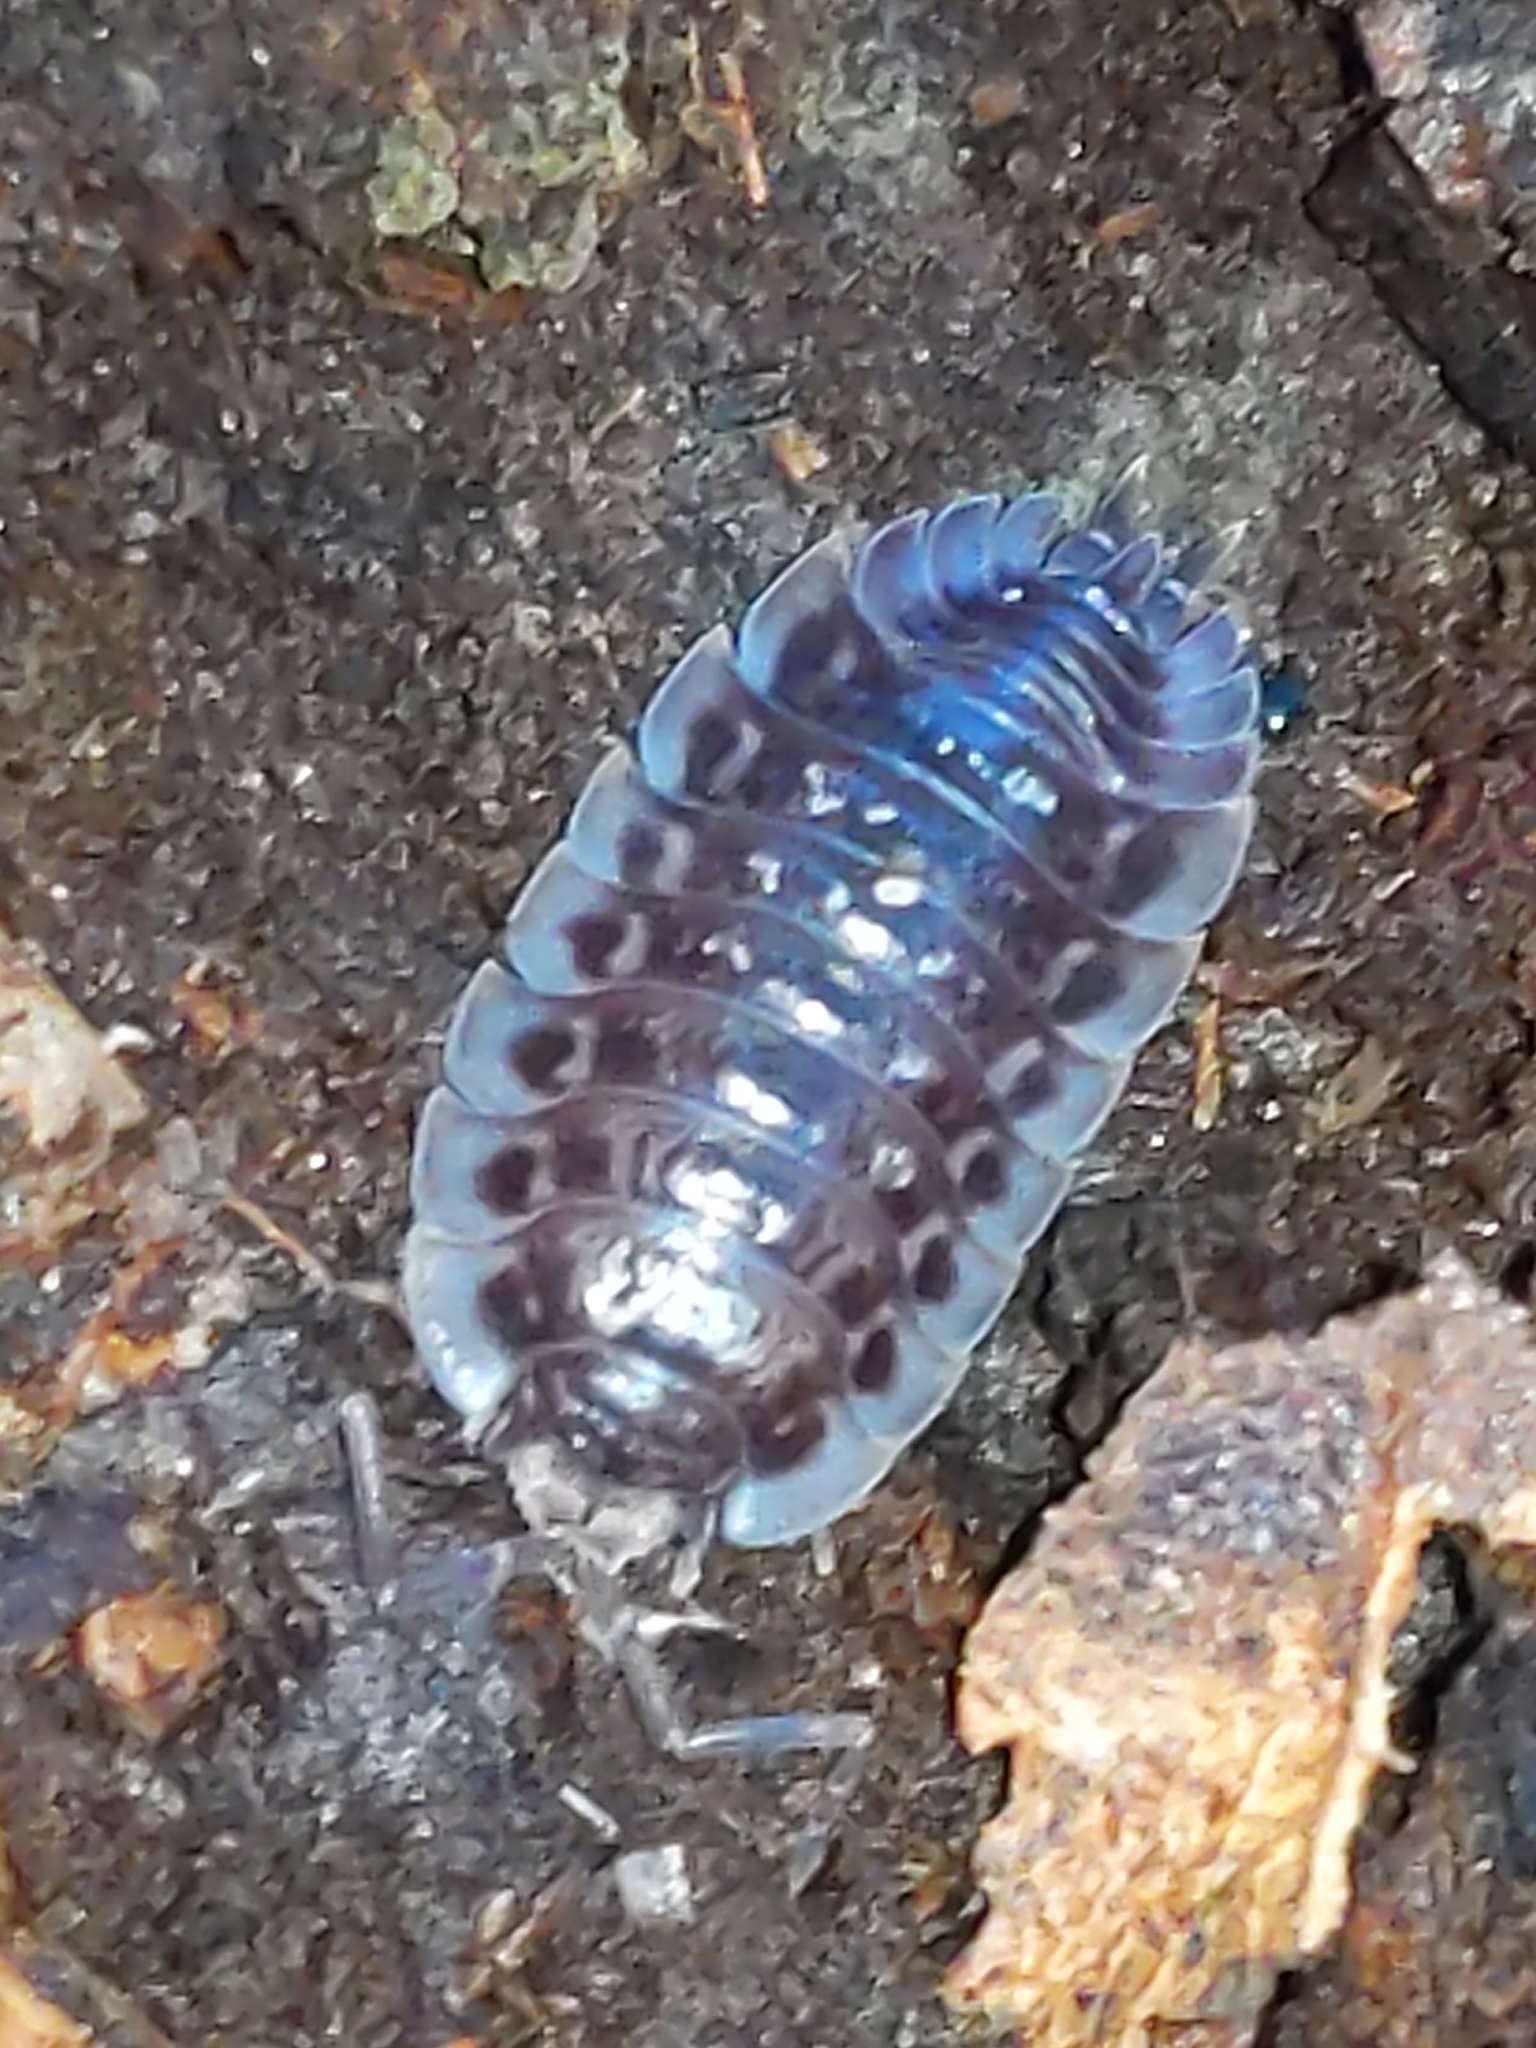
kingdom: Animalia
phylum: Arthropoda
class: Malacostraca
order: Isopoda
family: Oniscidae
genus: Oniscus
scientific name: Oniscus asellus
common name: Common shiny woodlouse
